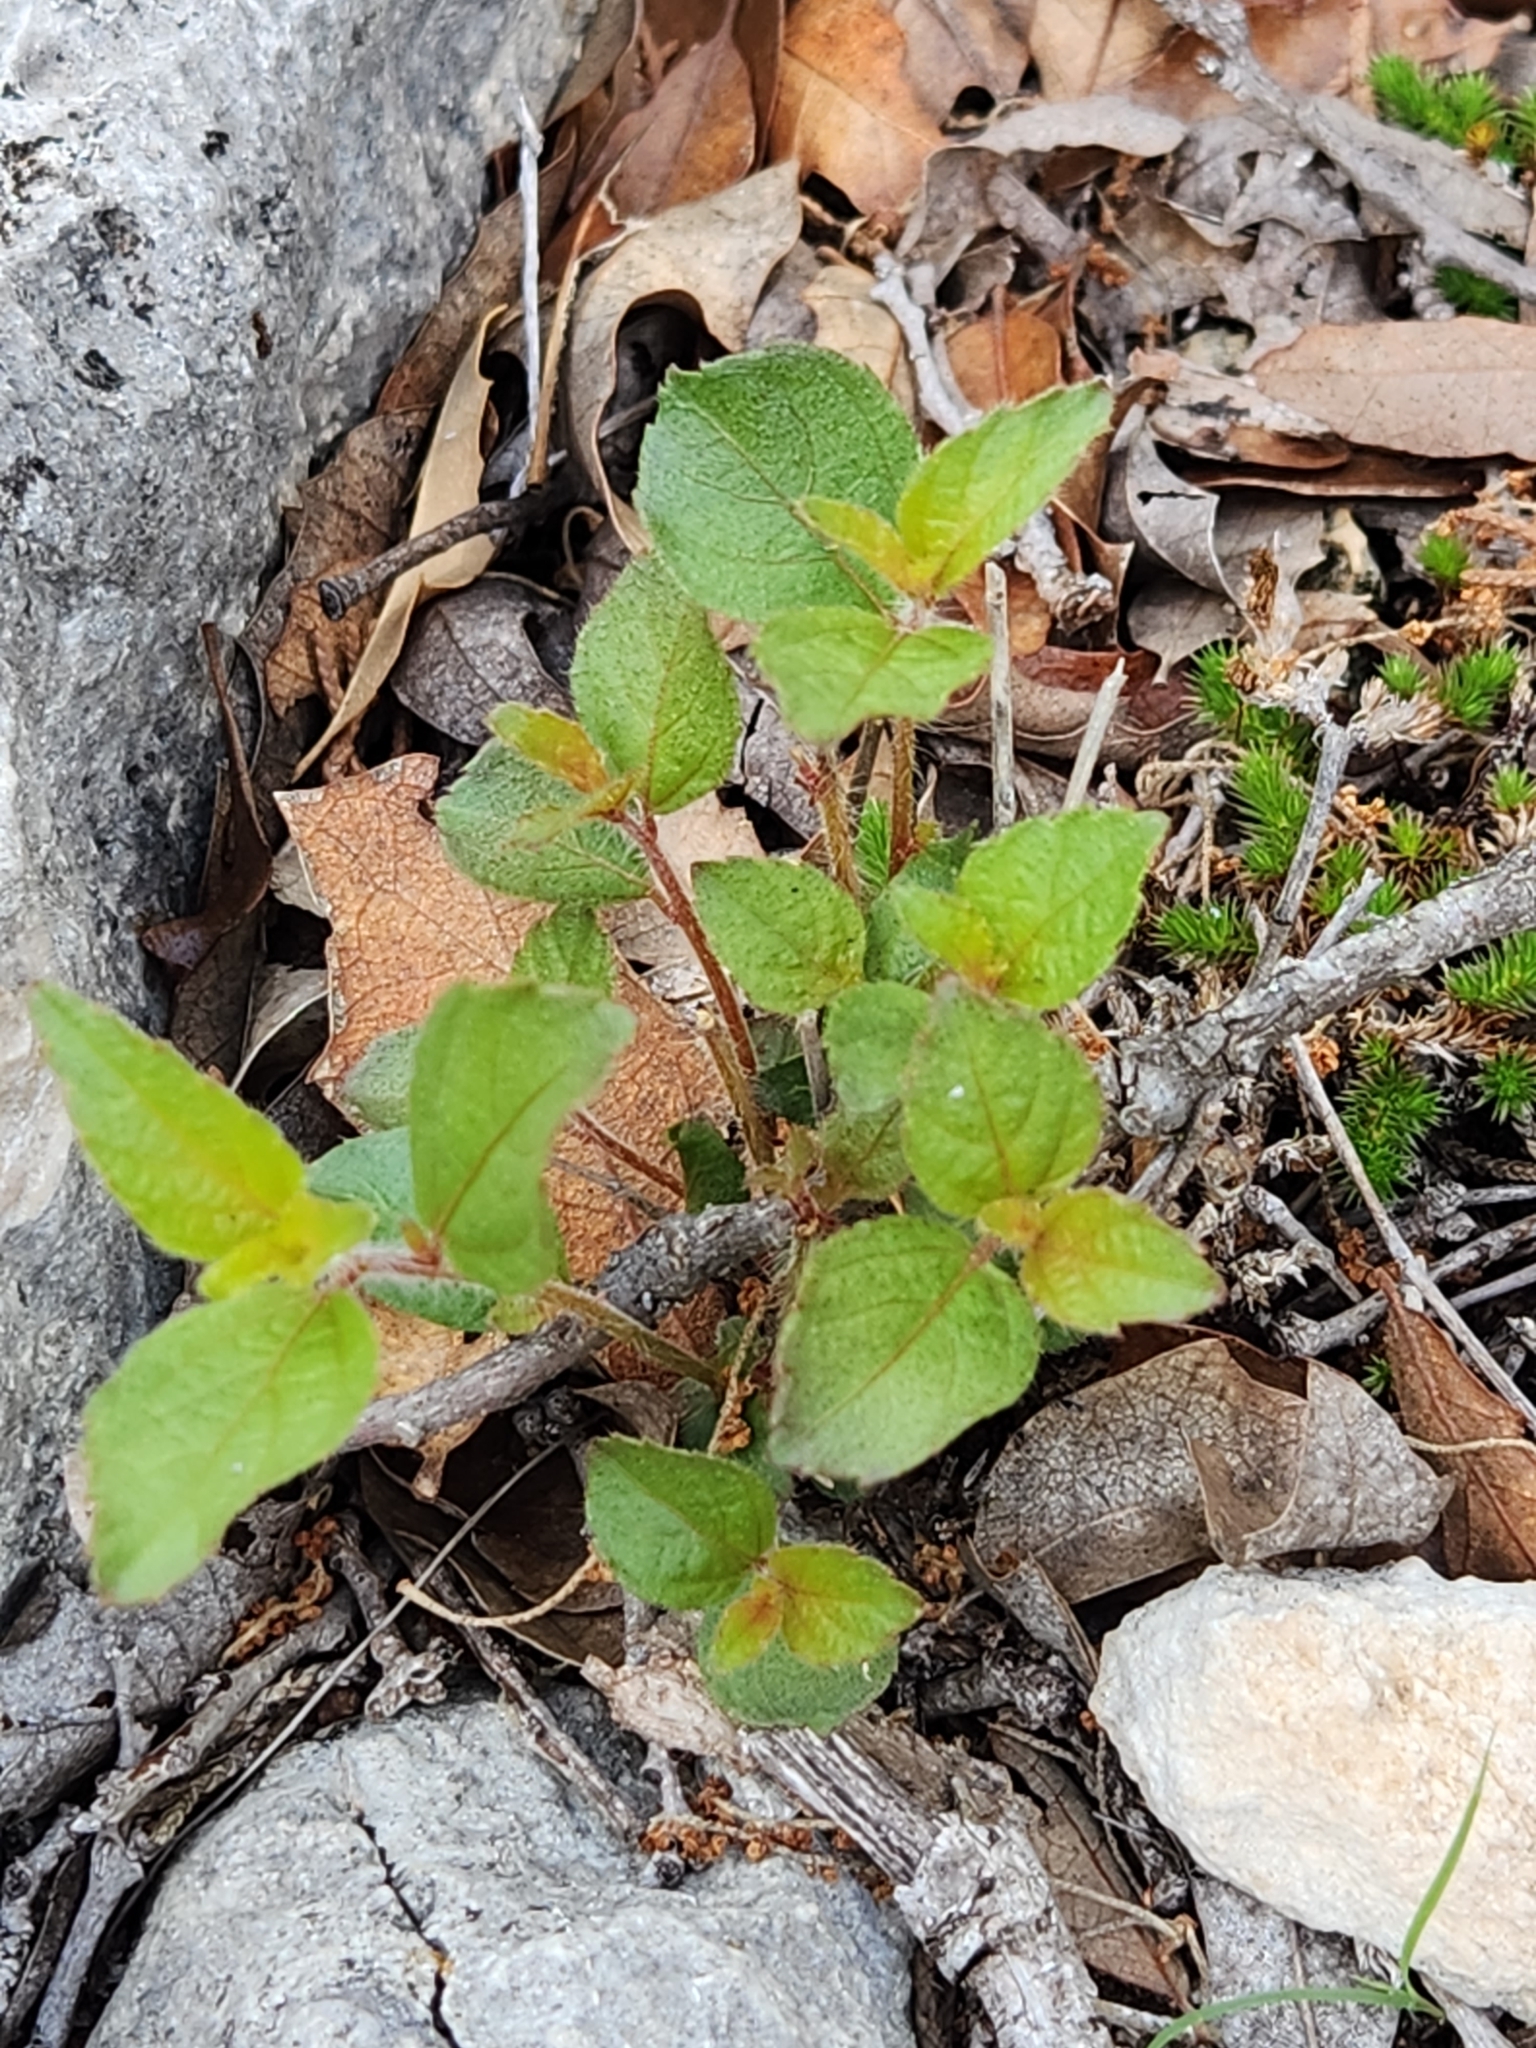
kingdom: Plantae
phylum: Tracheophyta
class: Magnoliopsida
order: Malpighiales
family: Euphorbiaceae
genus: Acalypha
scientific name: Acalypha phleoides
